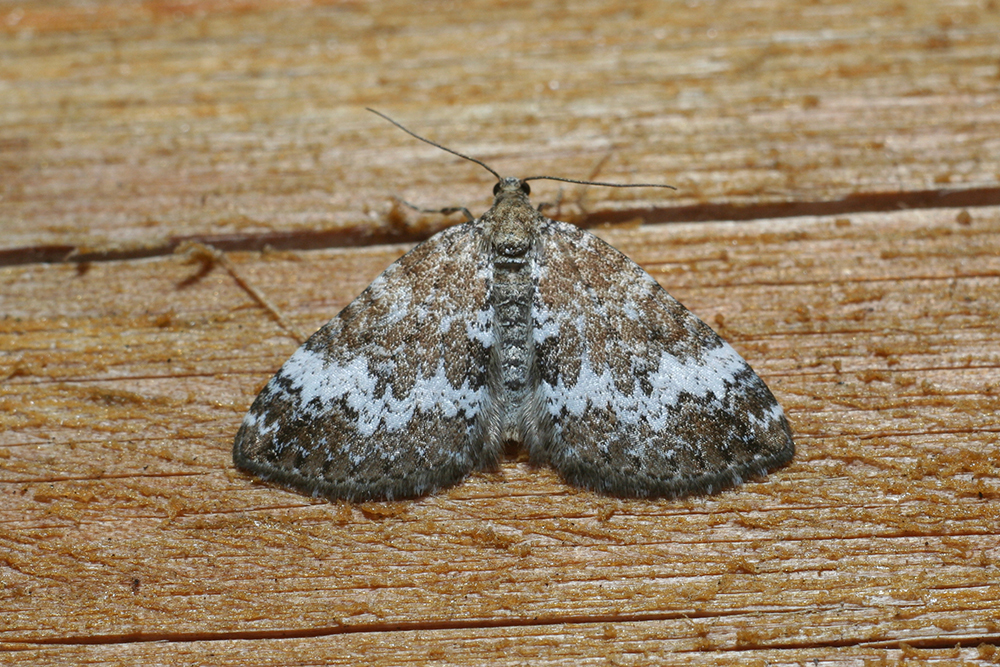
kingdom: Animalia
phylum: Arthropoda
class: Insecta
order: Lepidoptera
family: Geometridae
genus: Perizoma
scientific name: Perizoma alchemillata
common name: Small rivulet
